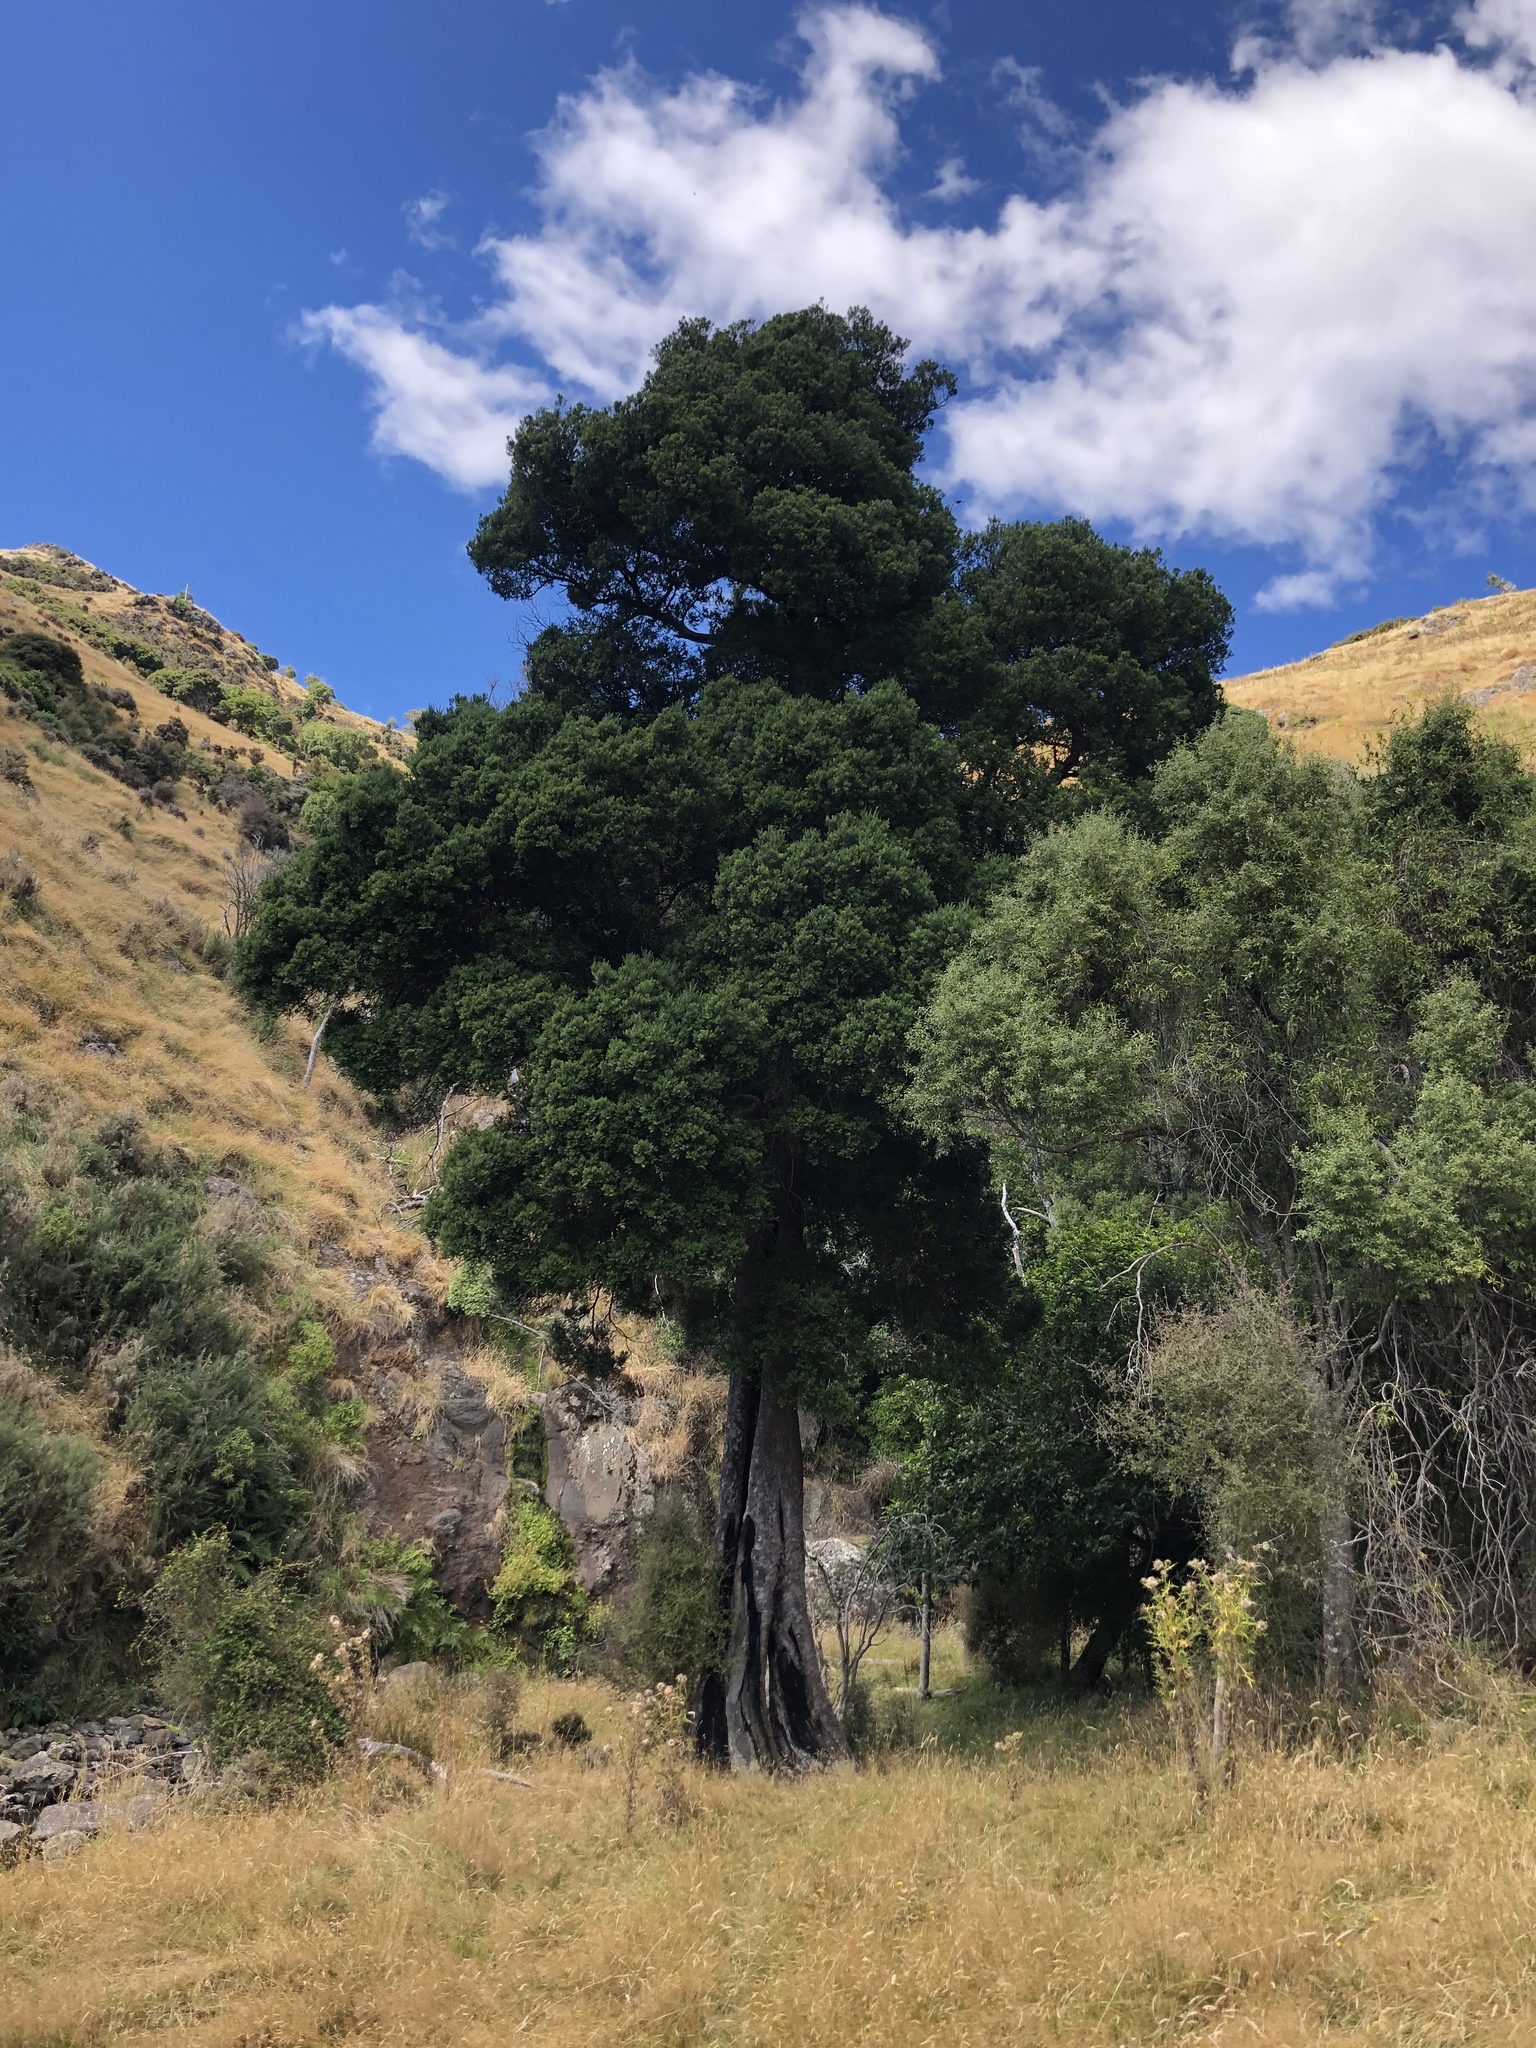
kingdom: Plantae
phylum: Tracheophyta
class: Pinopsida
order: Pinales
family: Podocarpaceae
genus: Prumnopitys
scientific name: Prumnopitys taxifolia
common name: Matai
